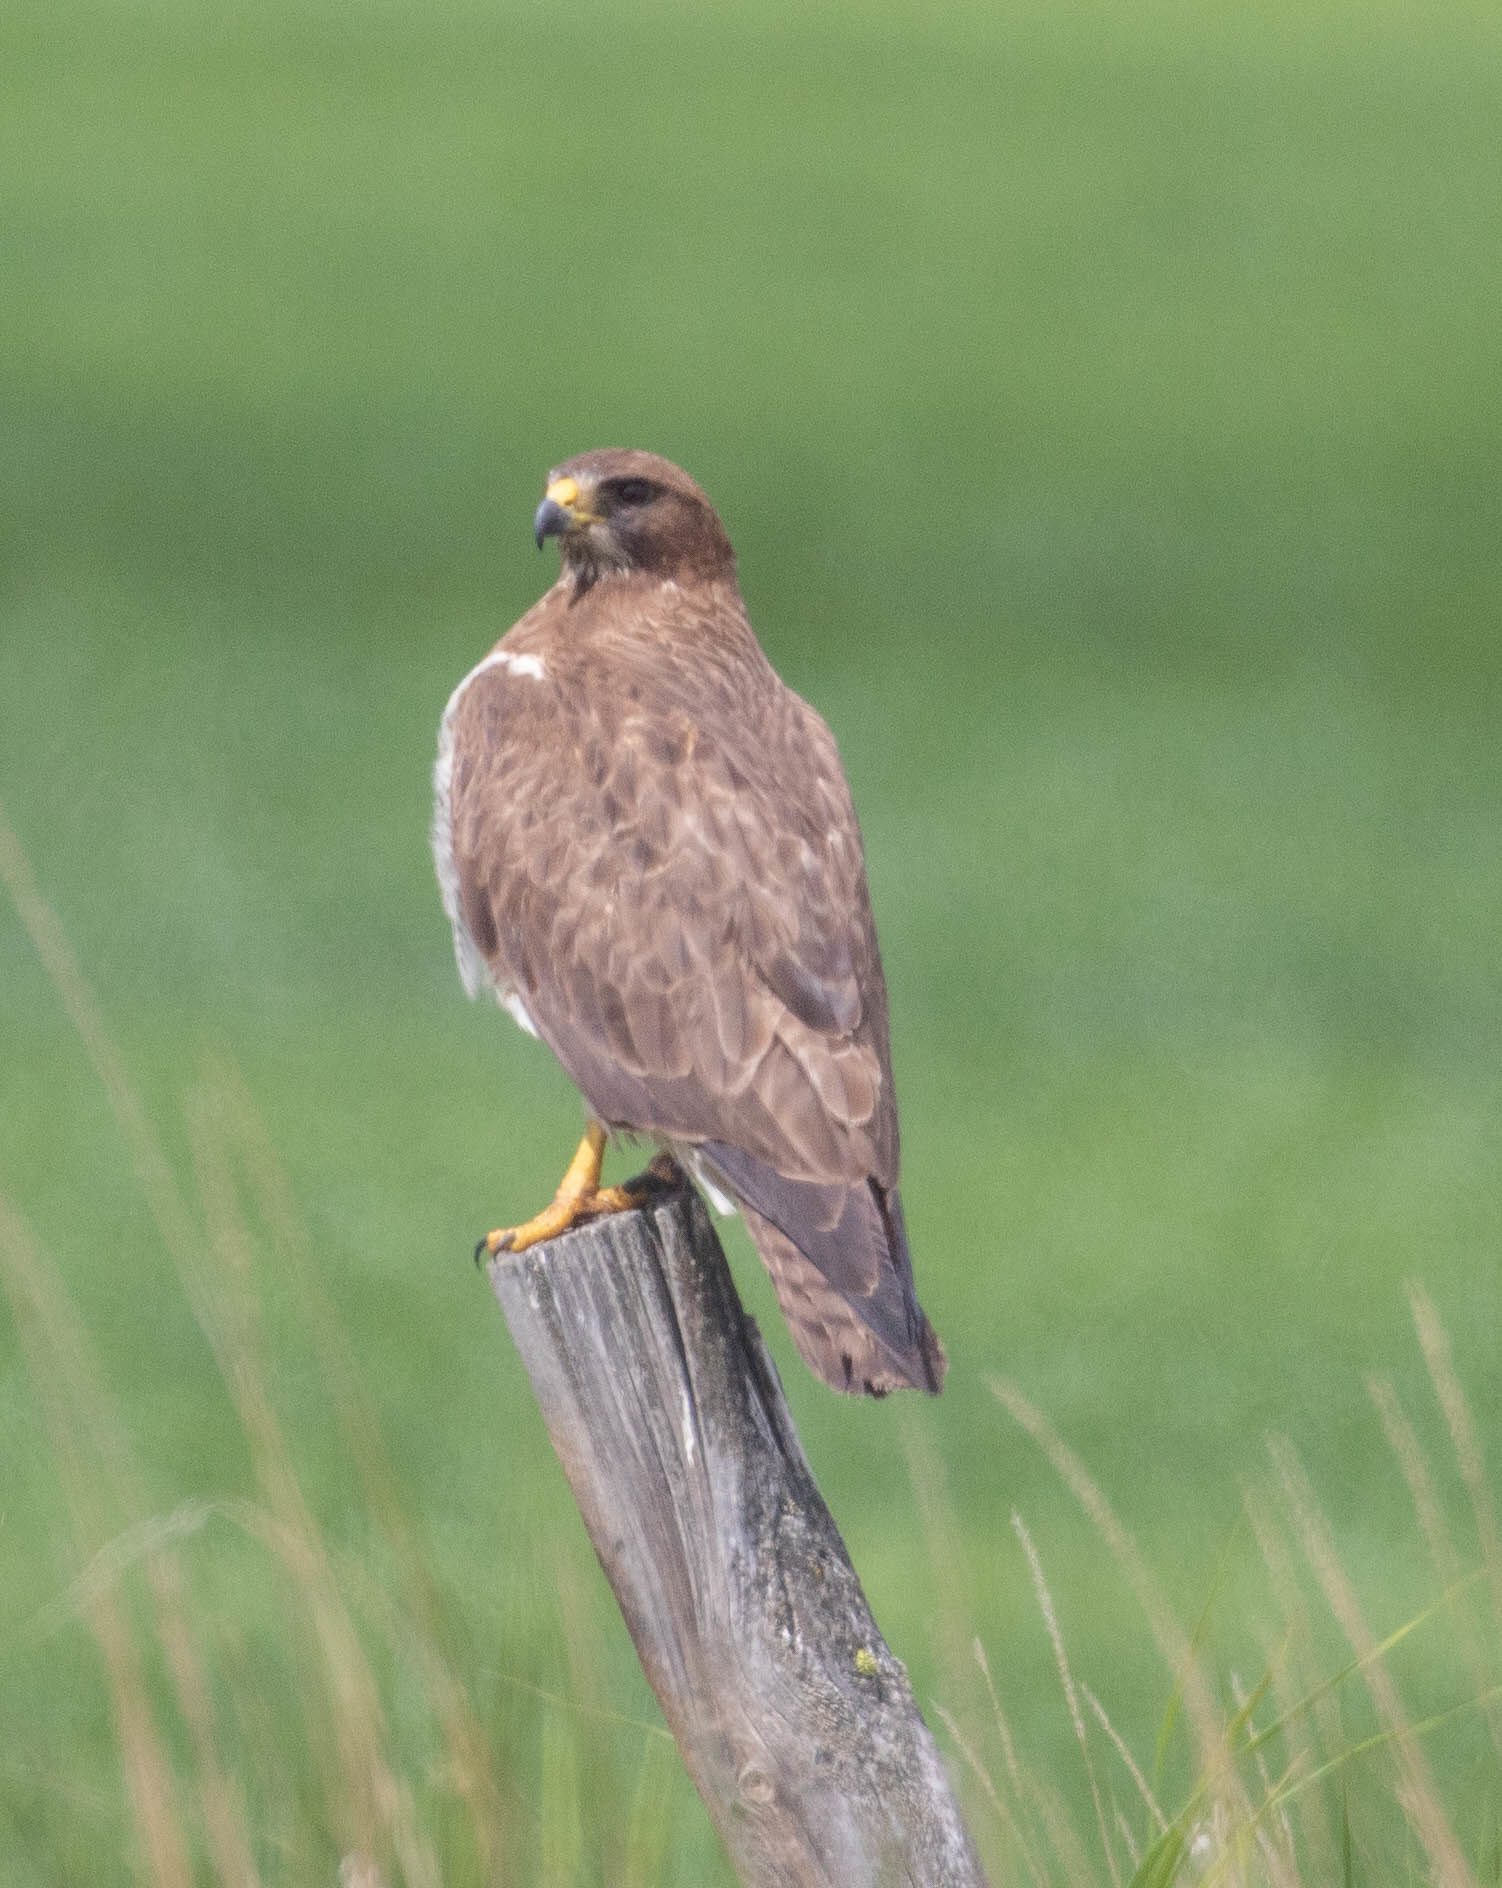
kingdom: Animalia
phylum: Chordata
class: Aves
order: Accipitriformes
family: Accipitridae
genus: Buteo
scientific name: Buteo swainsoni
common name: Swainson's hawk
